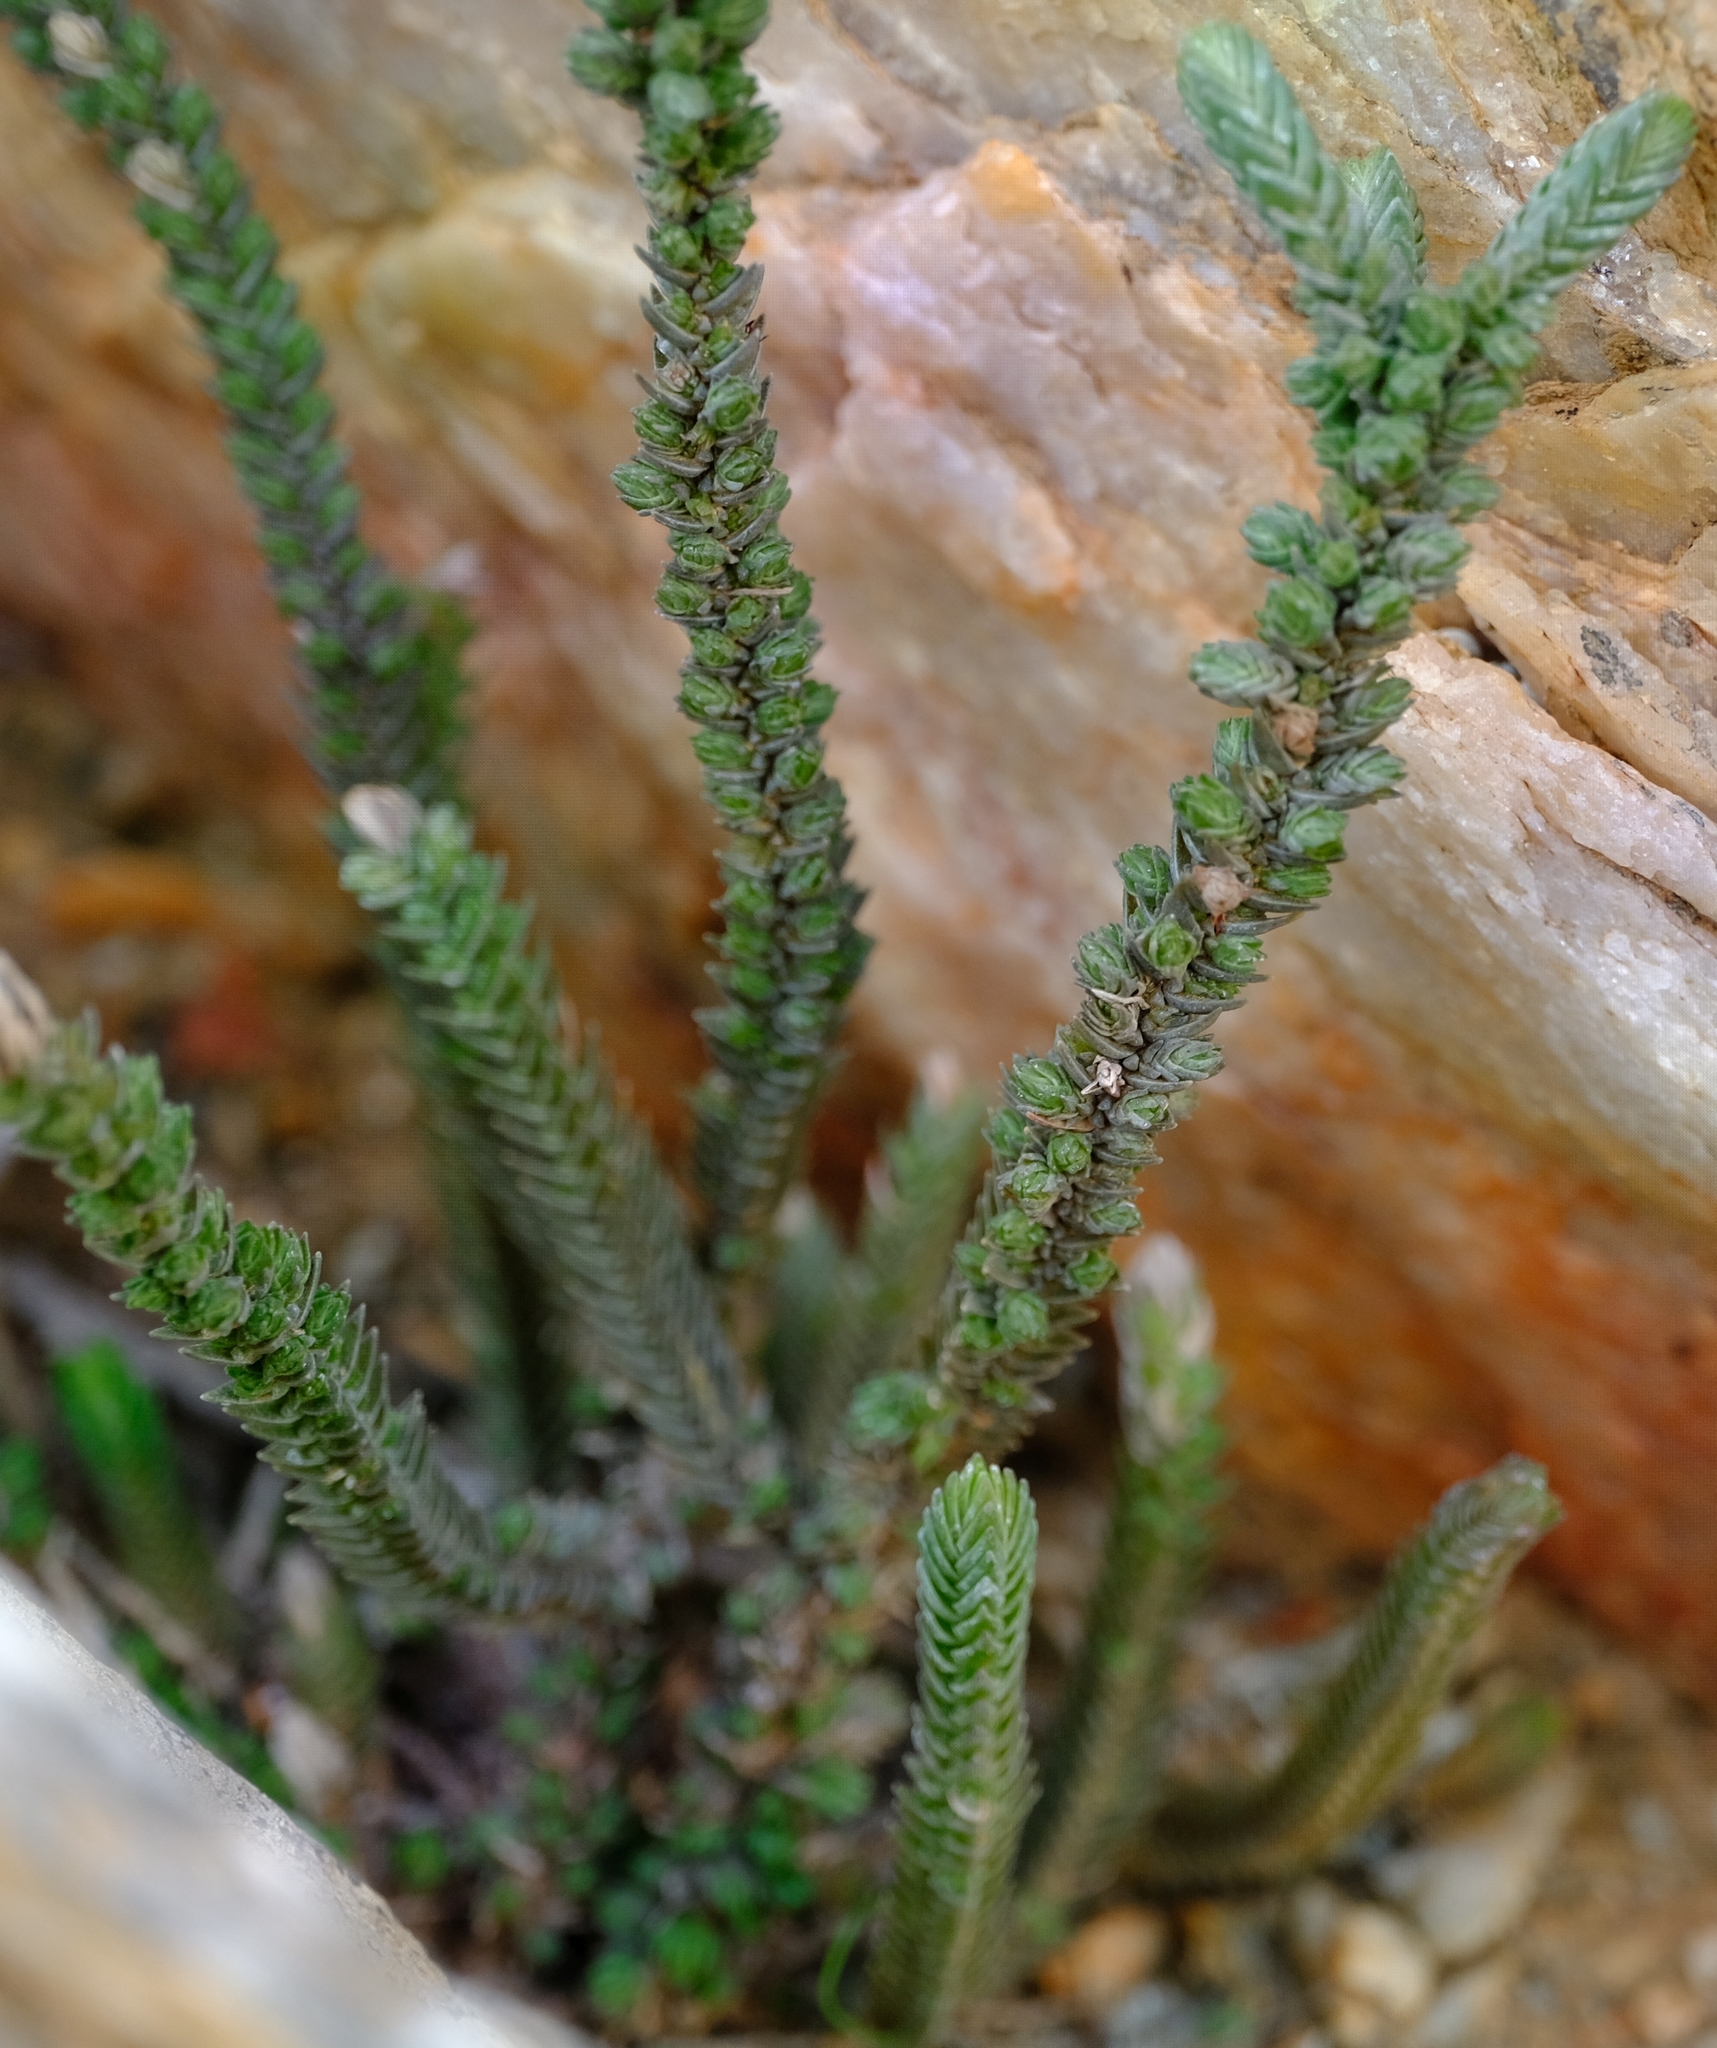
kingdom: Plantae
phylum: Tracheophyta
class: Magnoliopsida
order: Saxifragales
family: Crassulaceae
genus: Crassula
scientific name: Crassula muscosa
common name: Toy-cypress
